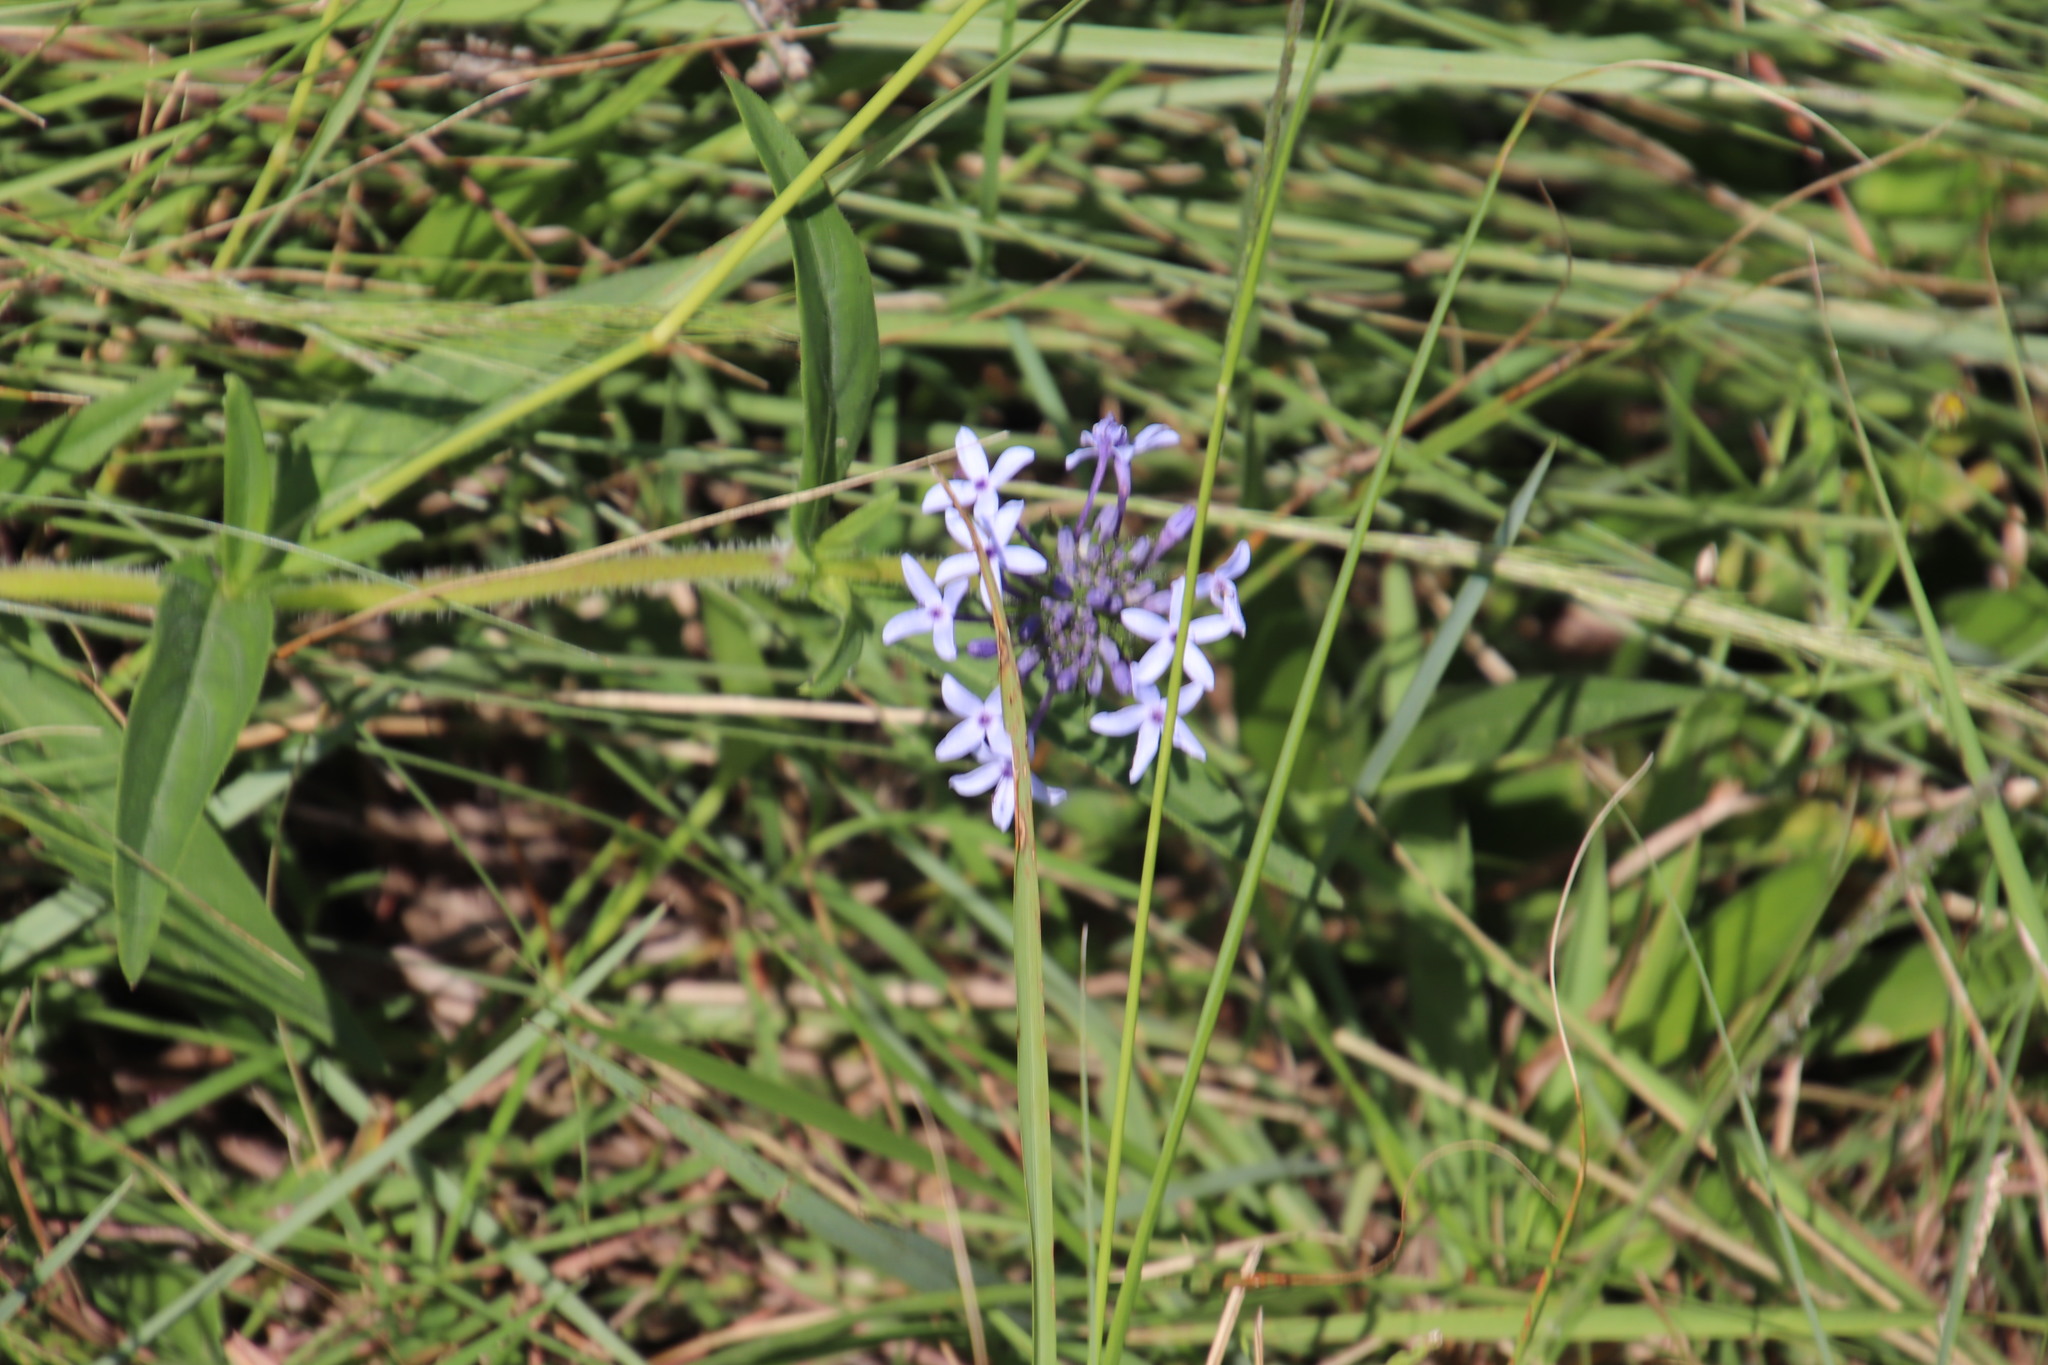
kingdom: Plantae
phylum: Tracheophyta
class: Magnoliopsida
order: Gentianales
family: Rubiaceae
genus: Pentanisia
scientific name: Pentanisia prunelloides
